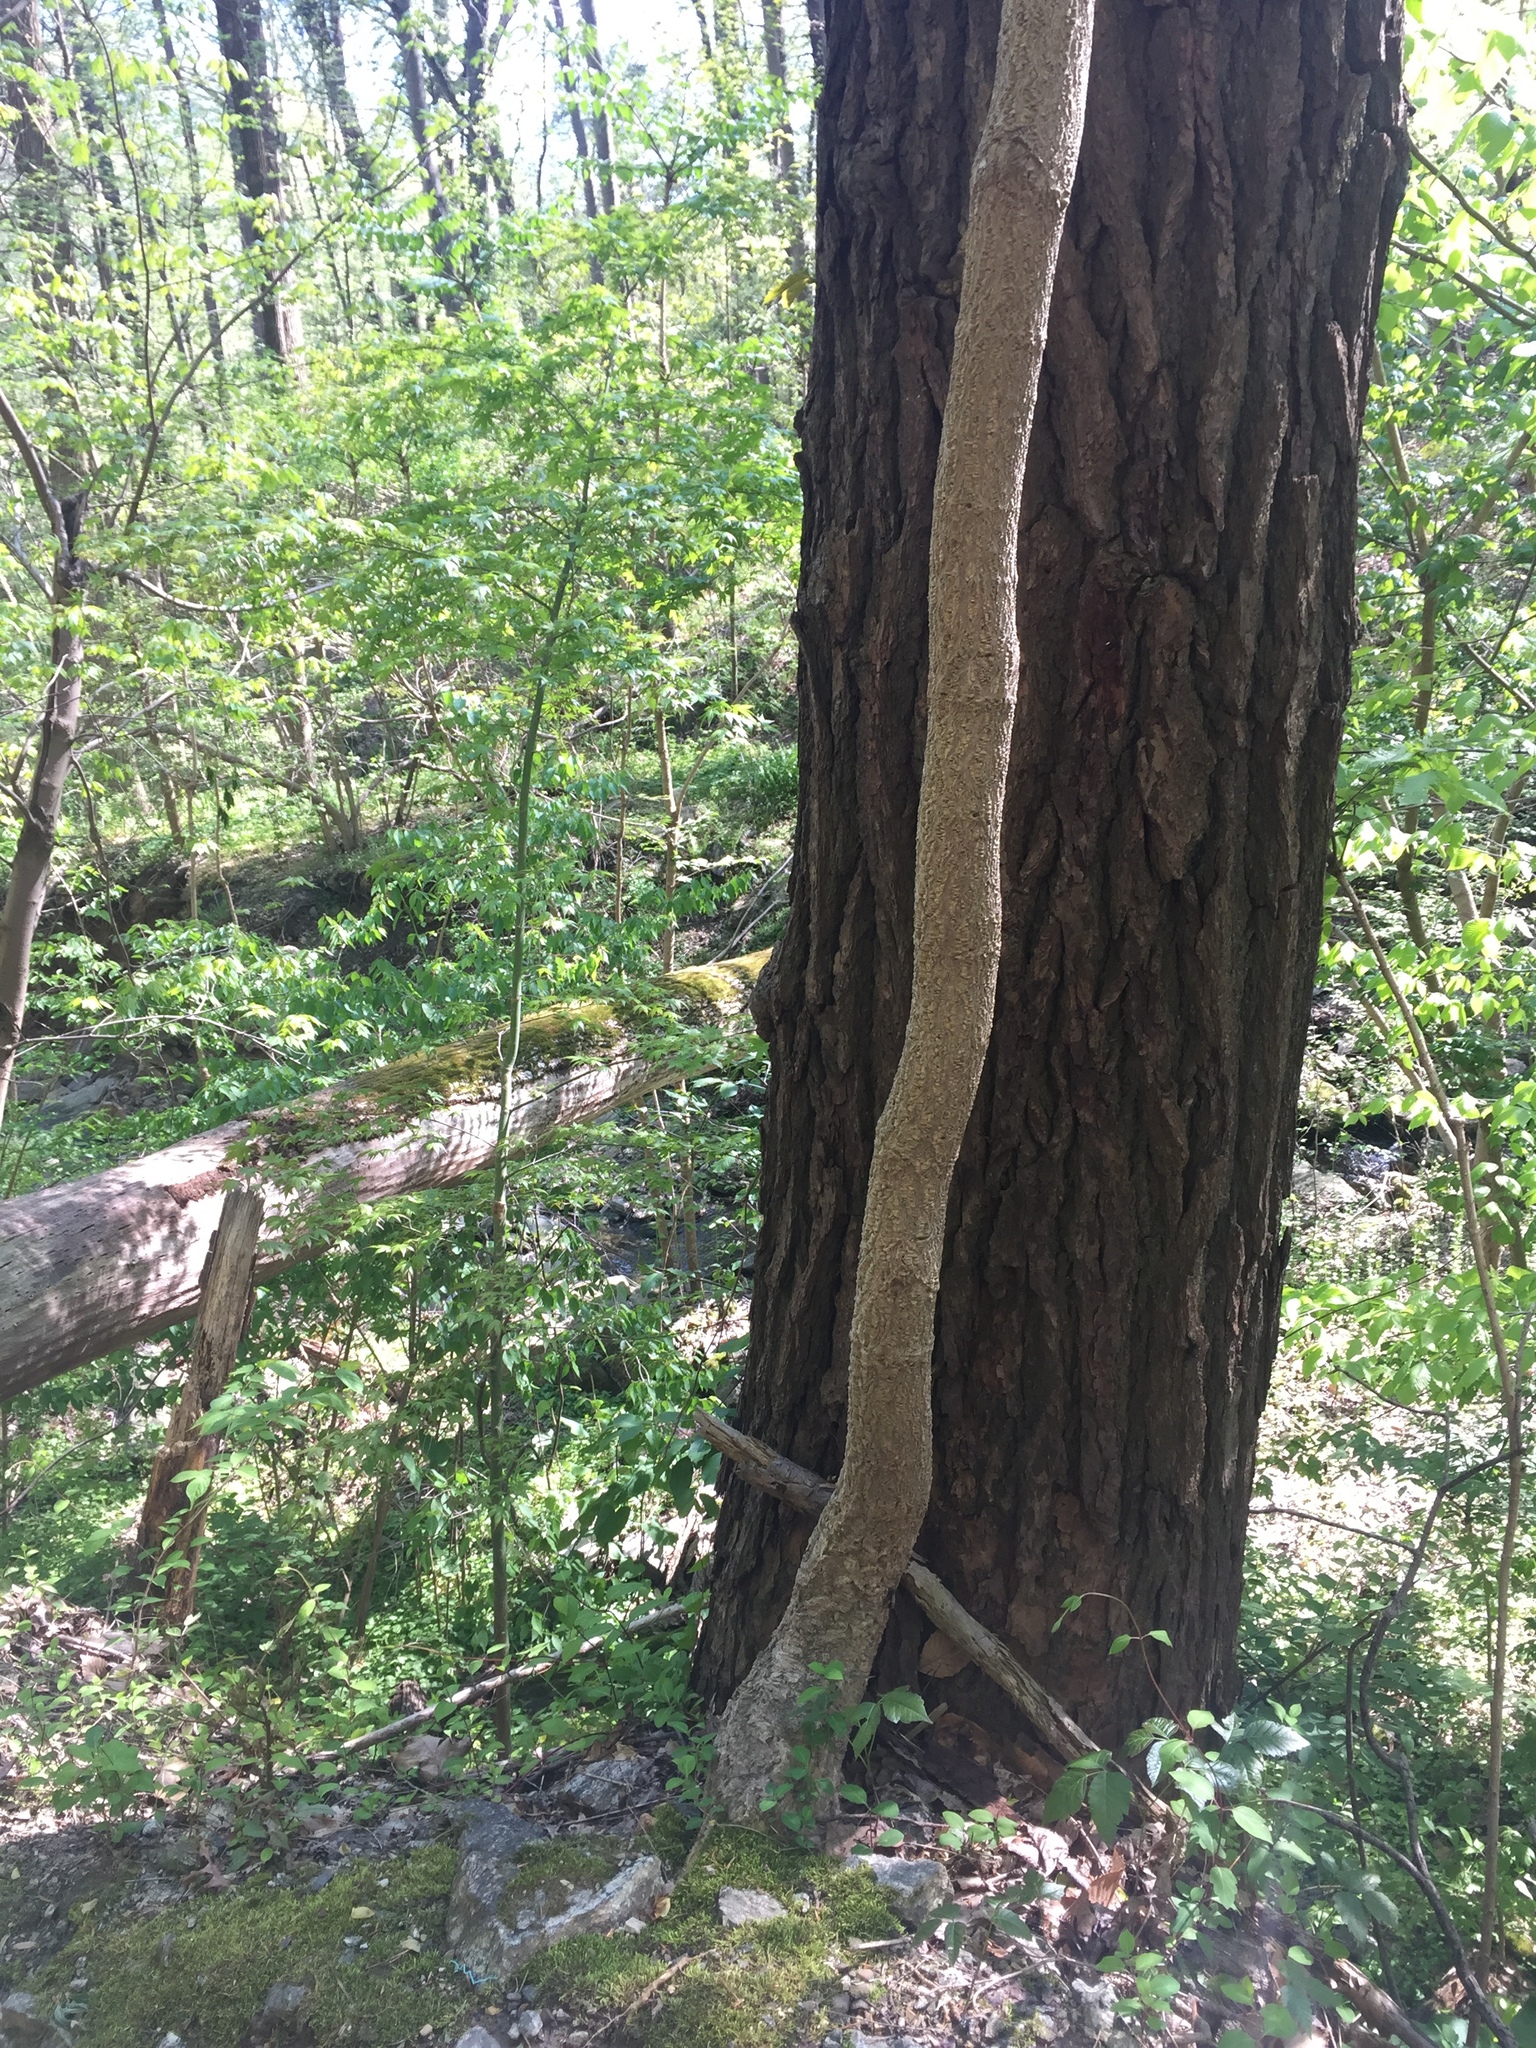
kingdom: Plantae
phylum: Tracheophyta
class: Magnoliopsida
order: Apiales
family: Araliaceae
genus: Aralia
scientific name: Aralia elata
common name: Japanese angelica-tree
